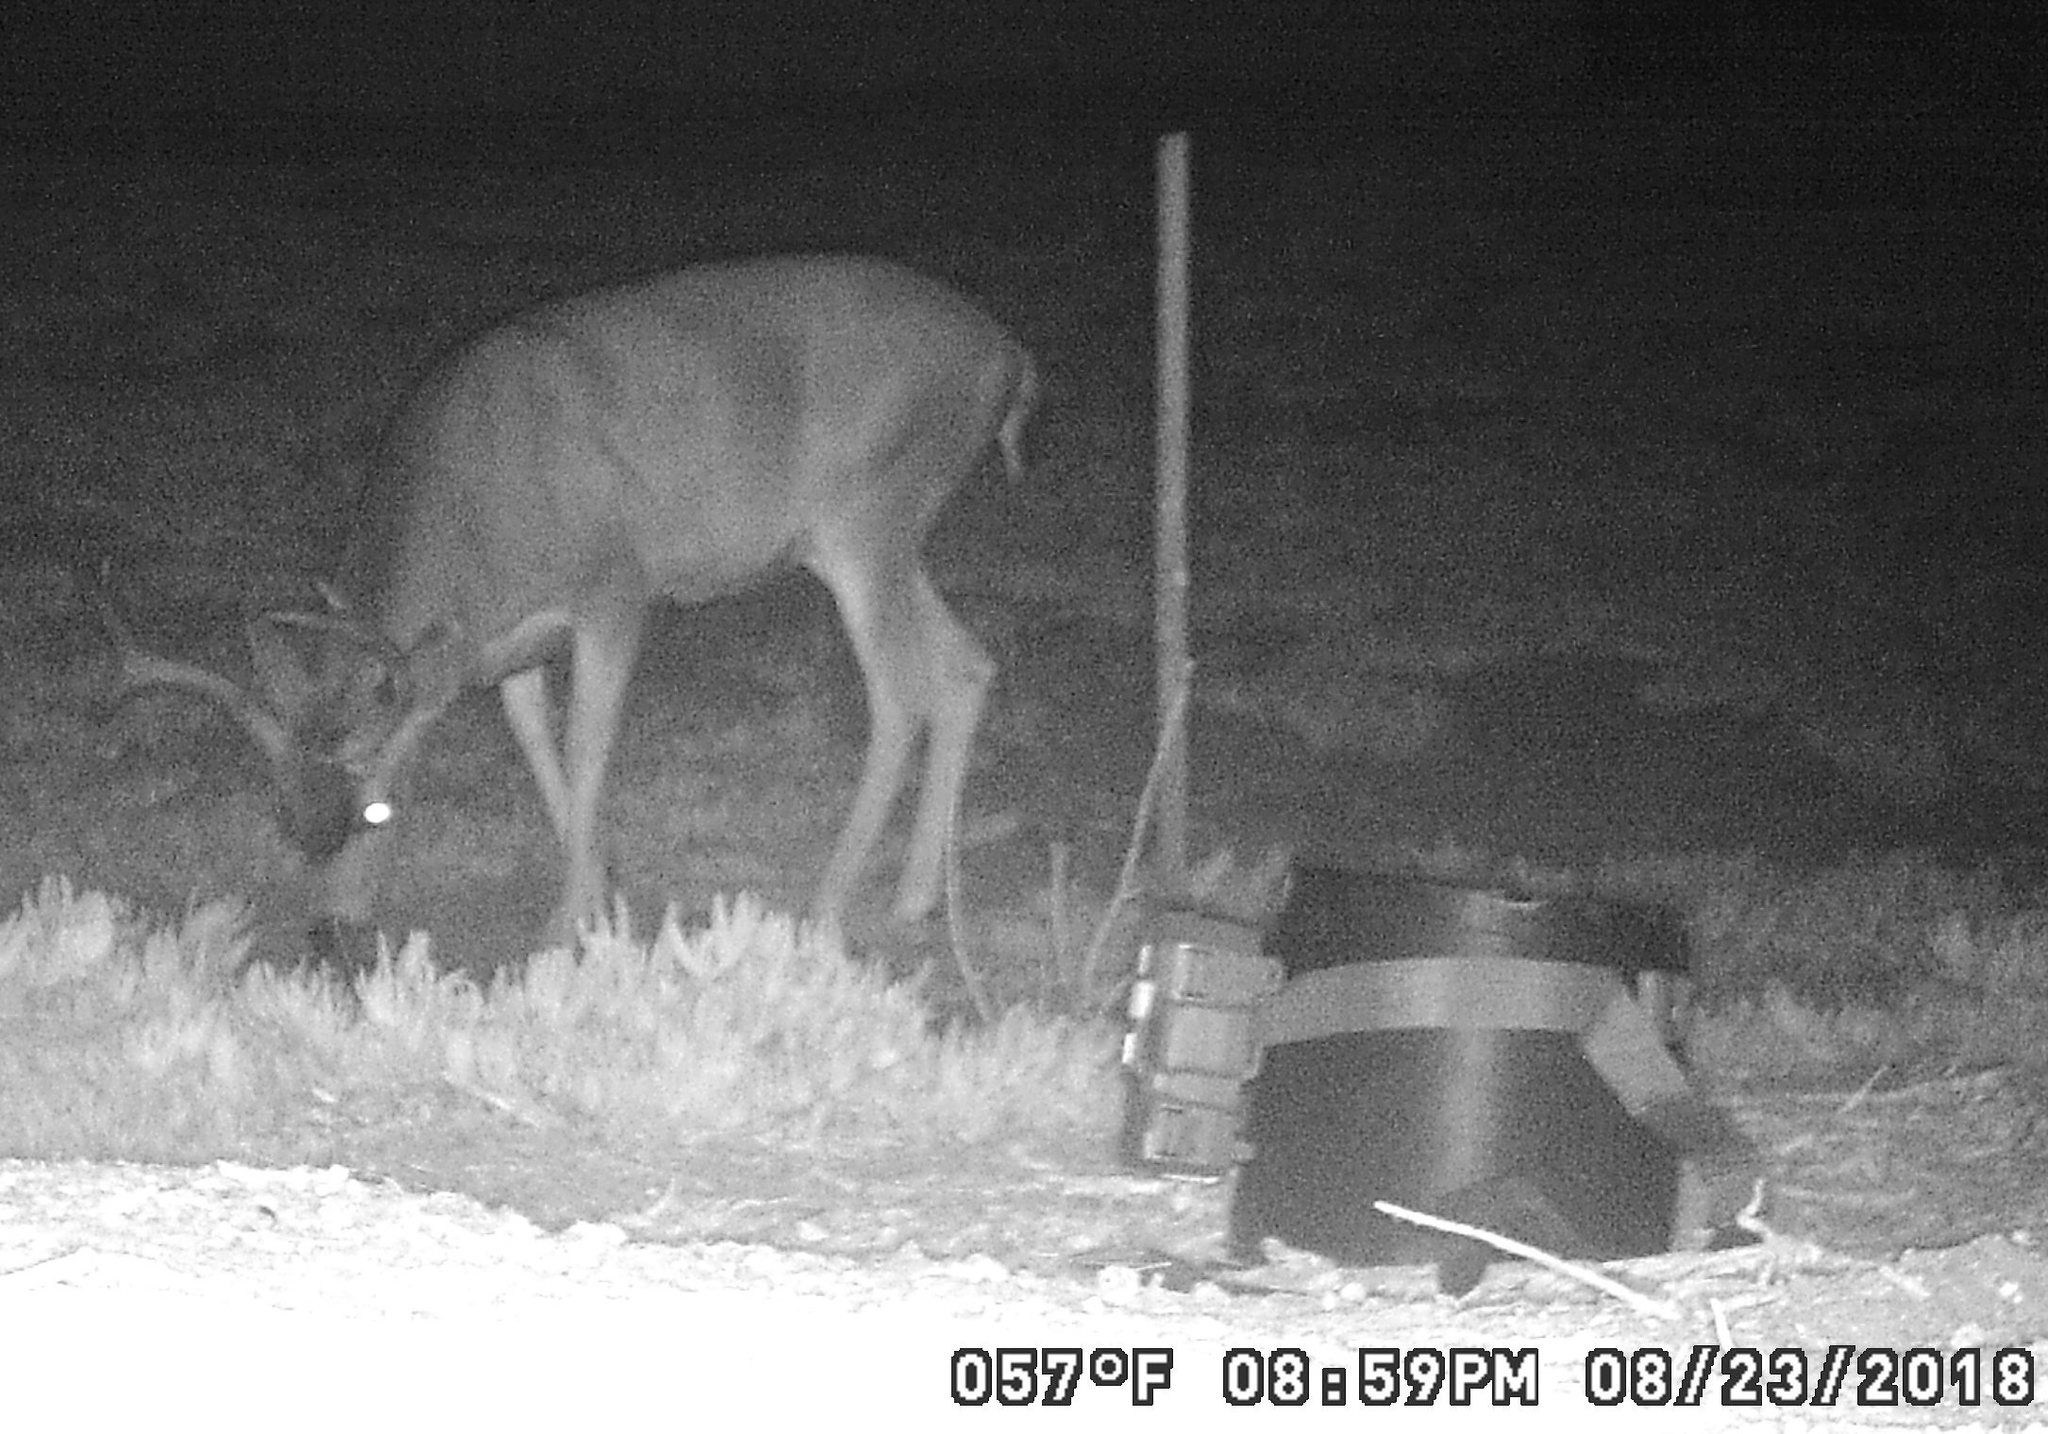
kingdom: Animalia
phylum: Chordata
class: Mammalia
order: Artiodactyla
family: Cervidae
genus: Odocoileus
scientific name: Odocoileus hemionus
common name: Mule deer
